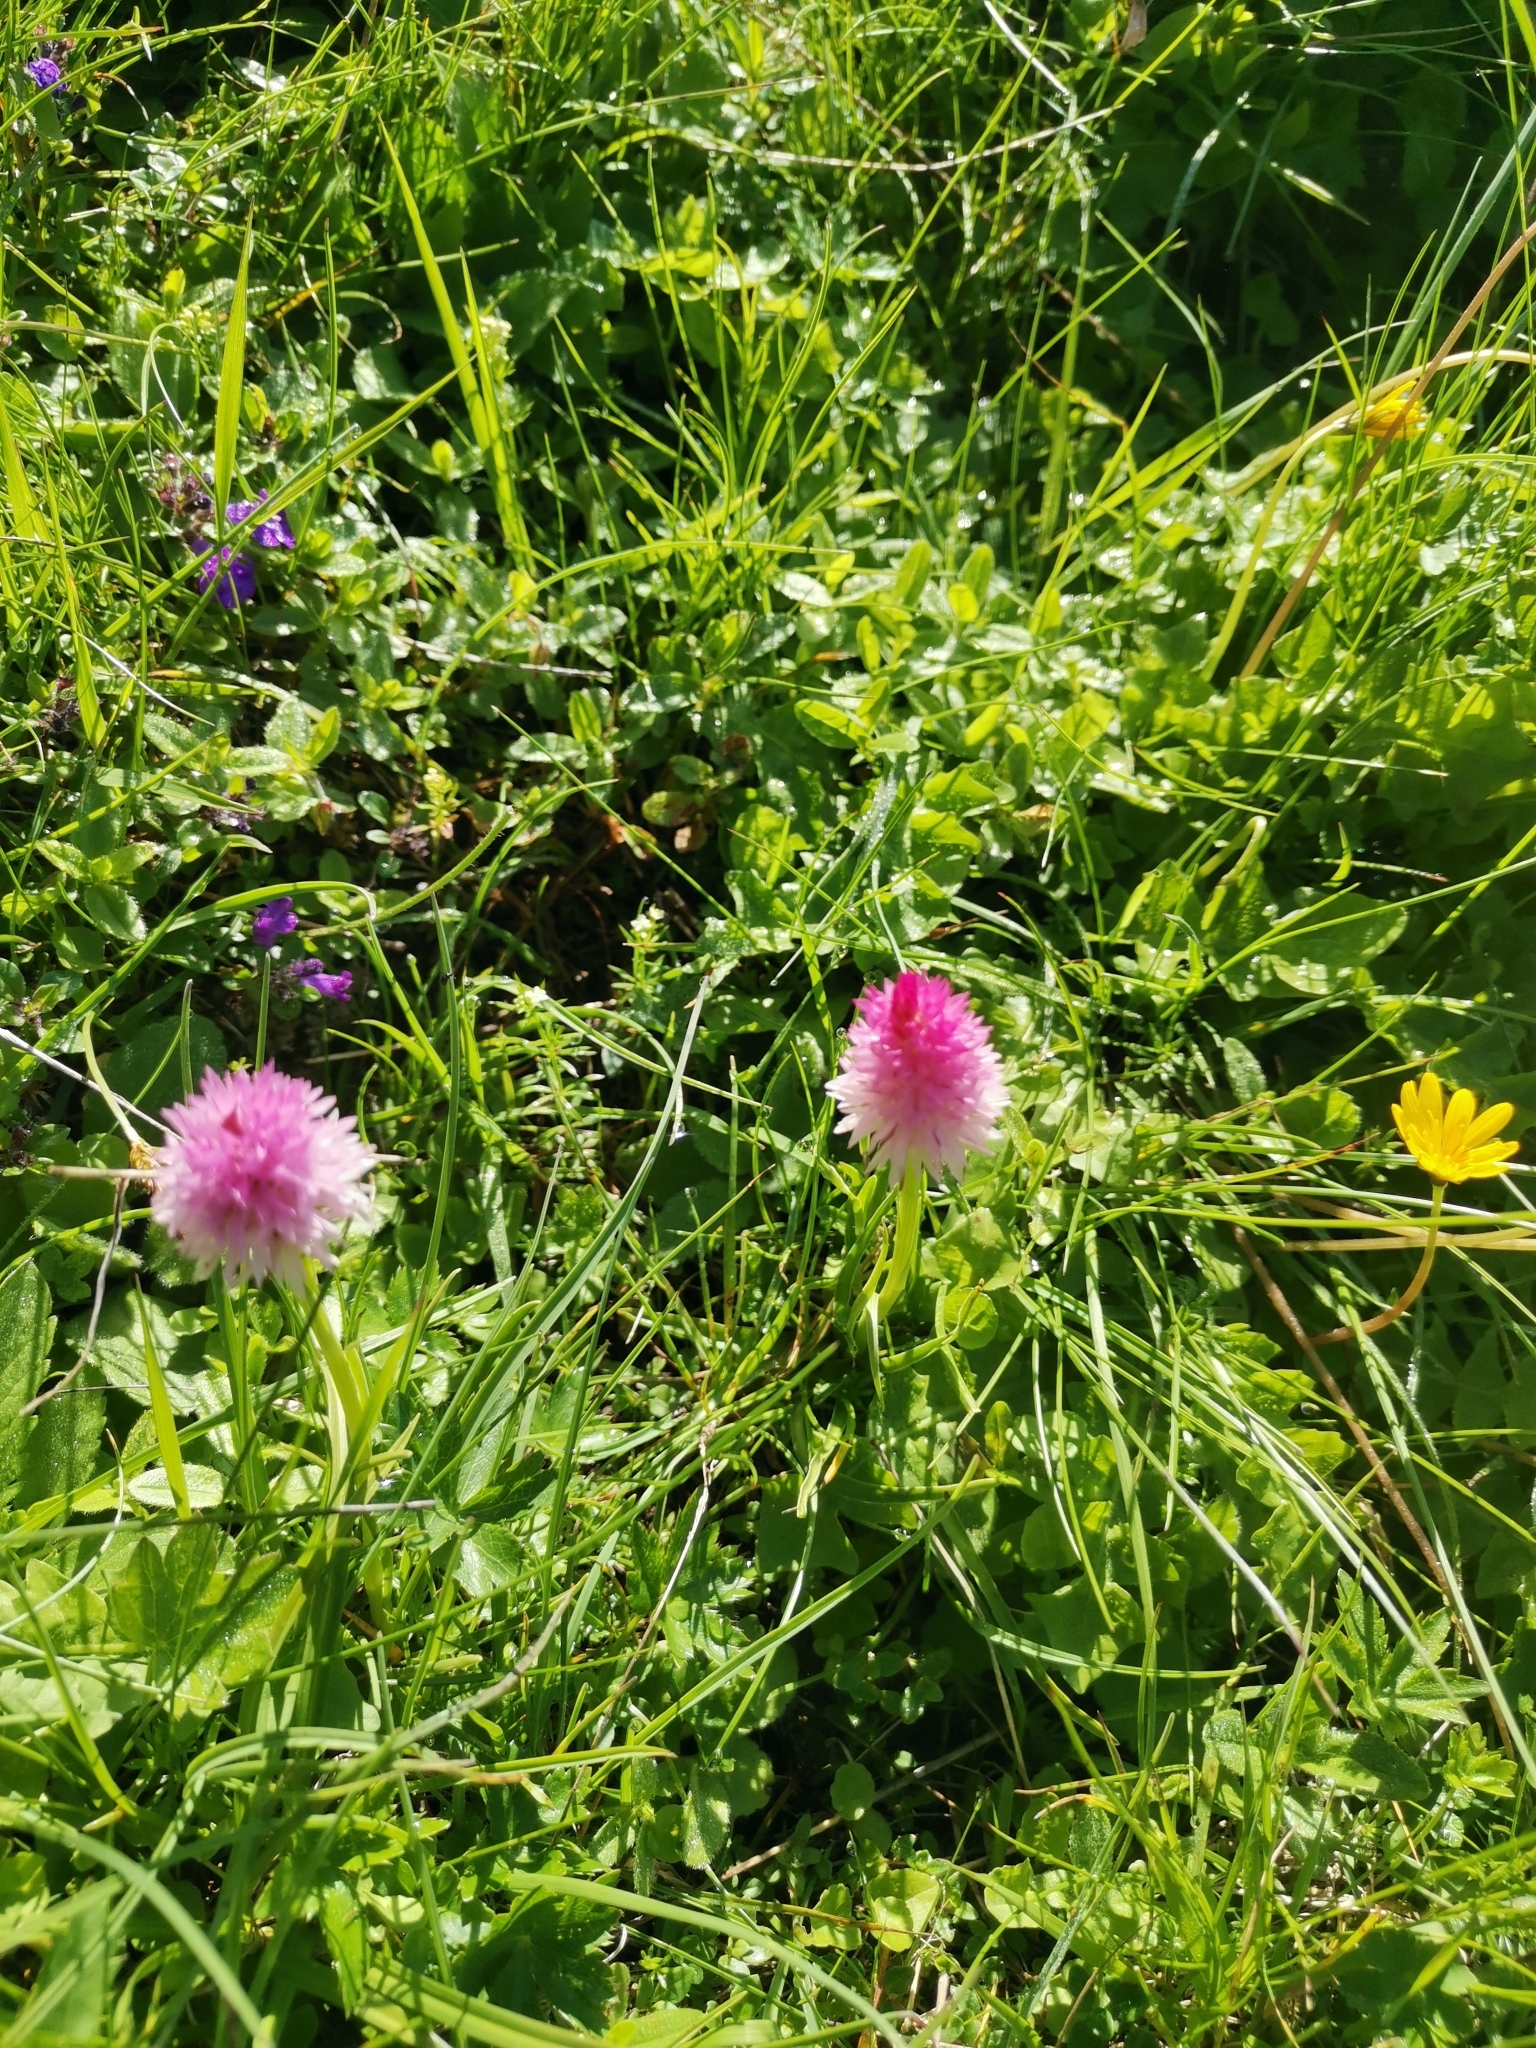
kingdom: Plantae
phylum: Tracheophyta
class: Liliopsida
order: Asparagales
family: Orchidaceae
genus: Gymnadenia
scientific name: Gymnadenia lithopolitanica
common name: Austrian gymnadenia
